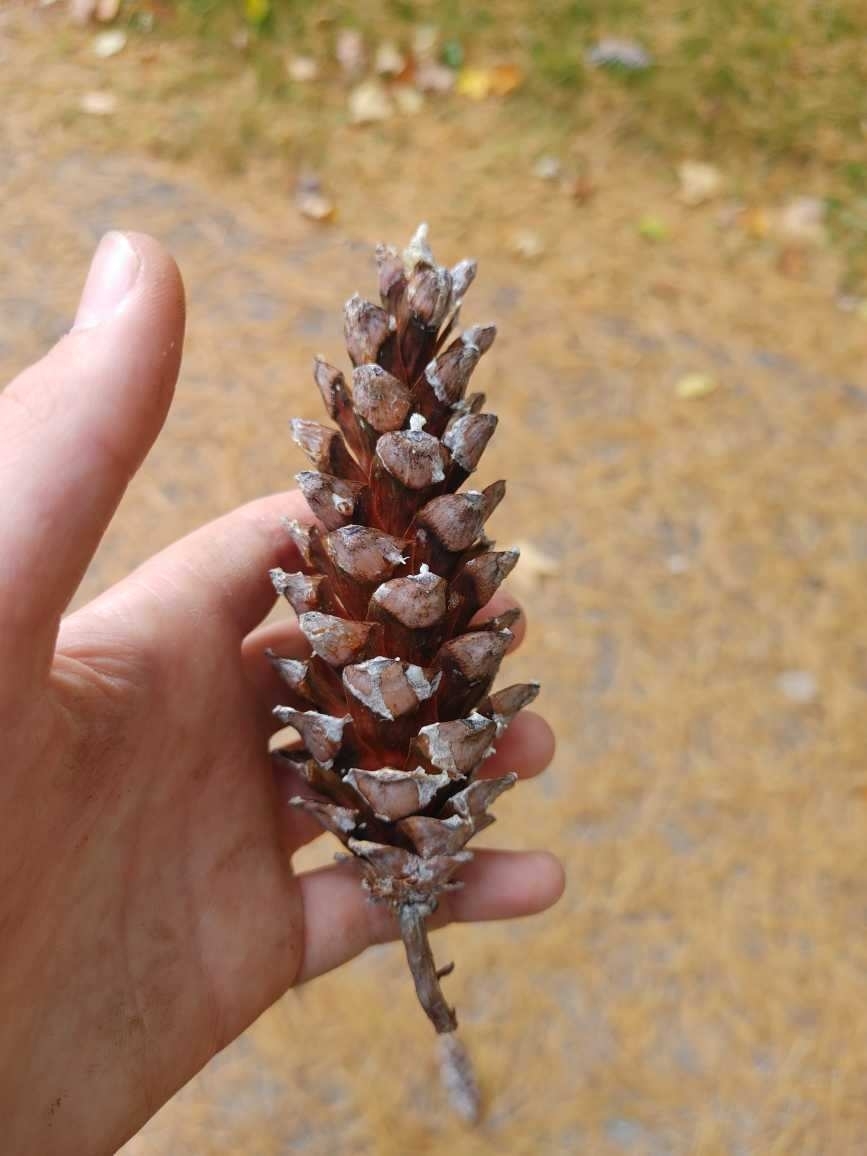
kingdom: Plantae
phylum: Tracheophyta
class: Pinopsida
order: Pinales
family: Pinaceae
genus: Pinus
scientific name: Pinus strobus
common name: Weymouth pine
